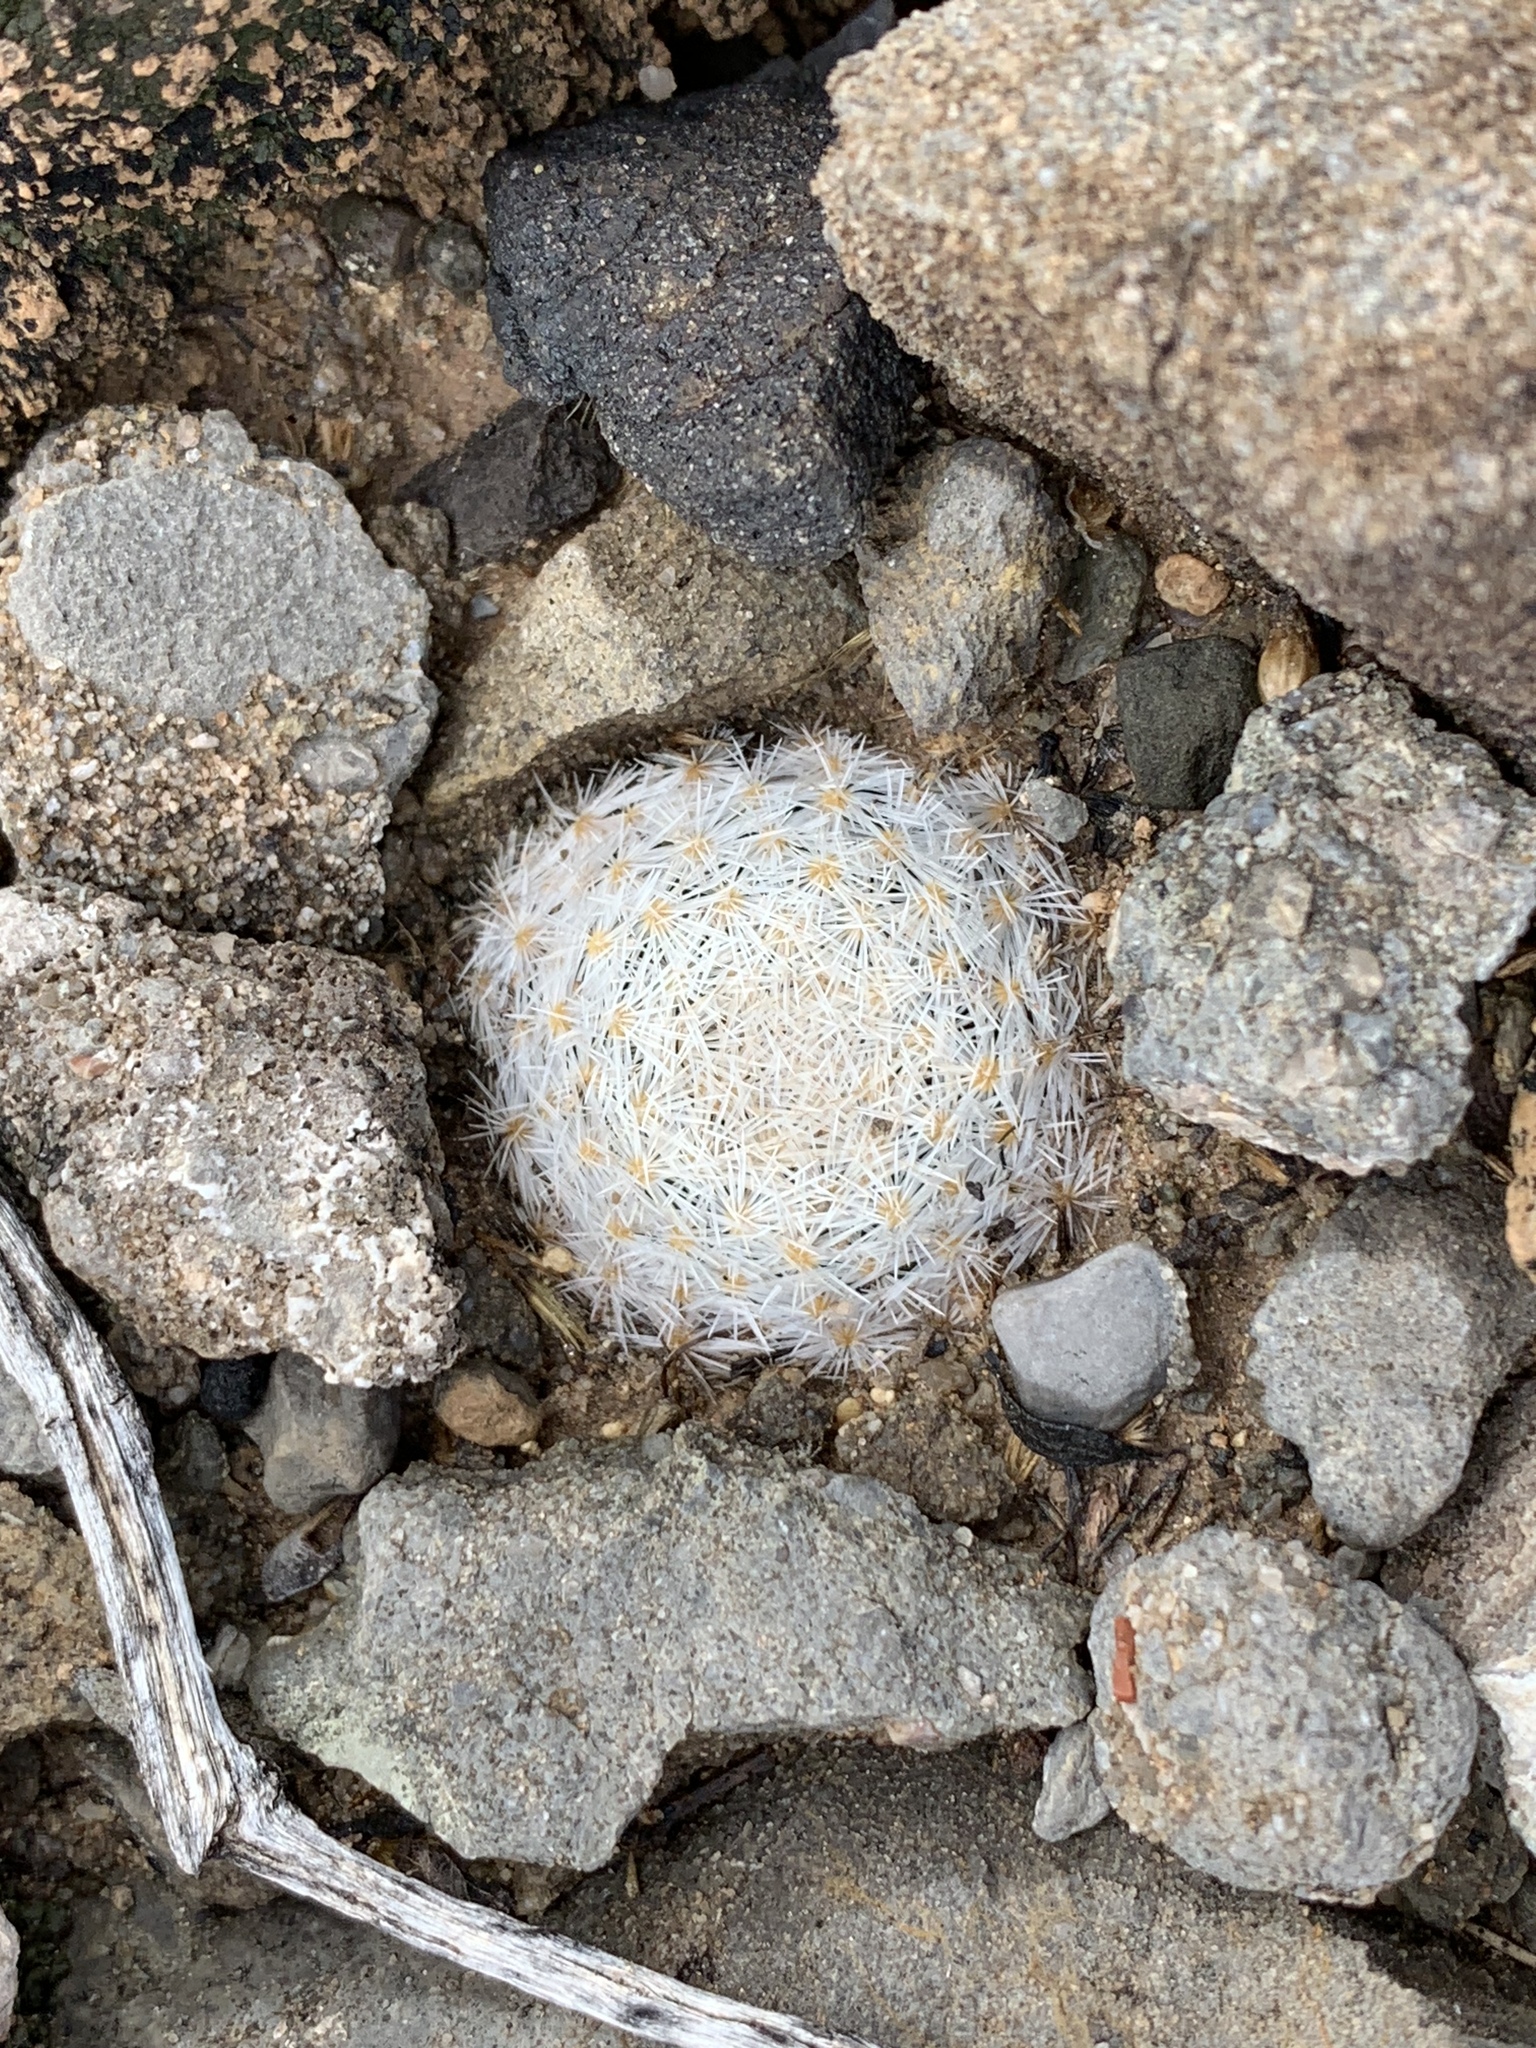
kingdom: Plantae
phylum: Tracheophyta
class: Magnoliopsida
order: Caryophyllales
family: Cactaceae
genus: Mammillaria
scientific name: Mammillaria lasiacantha
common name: Lace-spine nipple cactus
